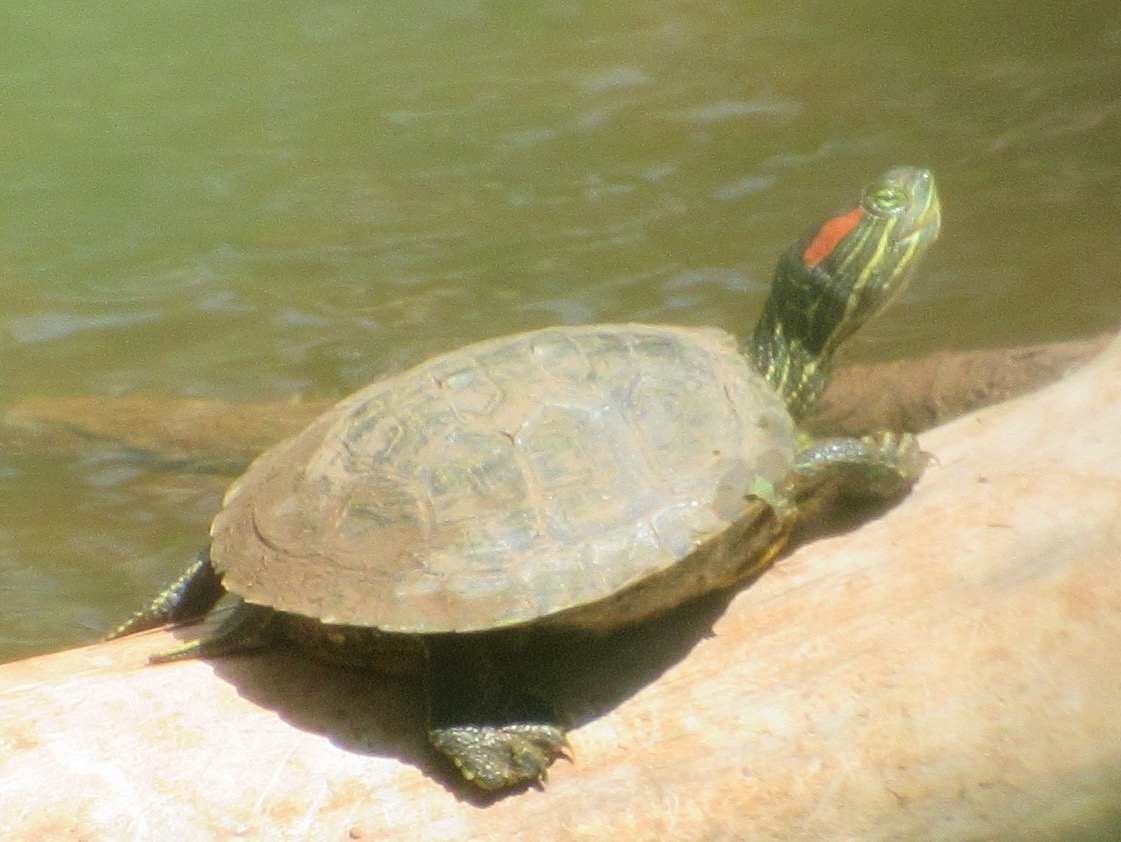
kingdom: Animalia
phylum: Chordata
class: Testudines
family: Emydidae
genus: Trachemys
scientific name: Trachemys scripta
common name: Slider
